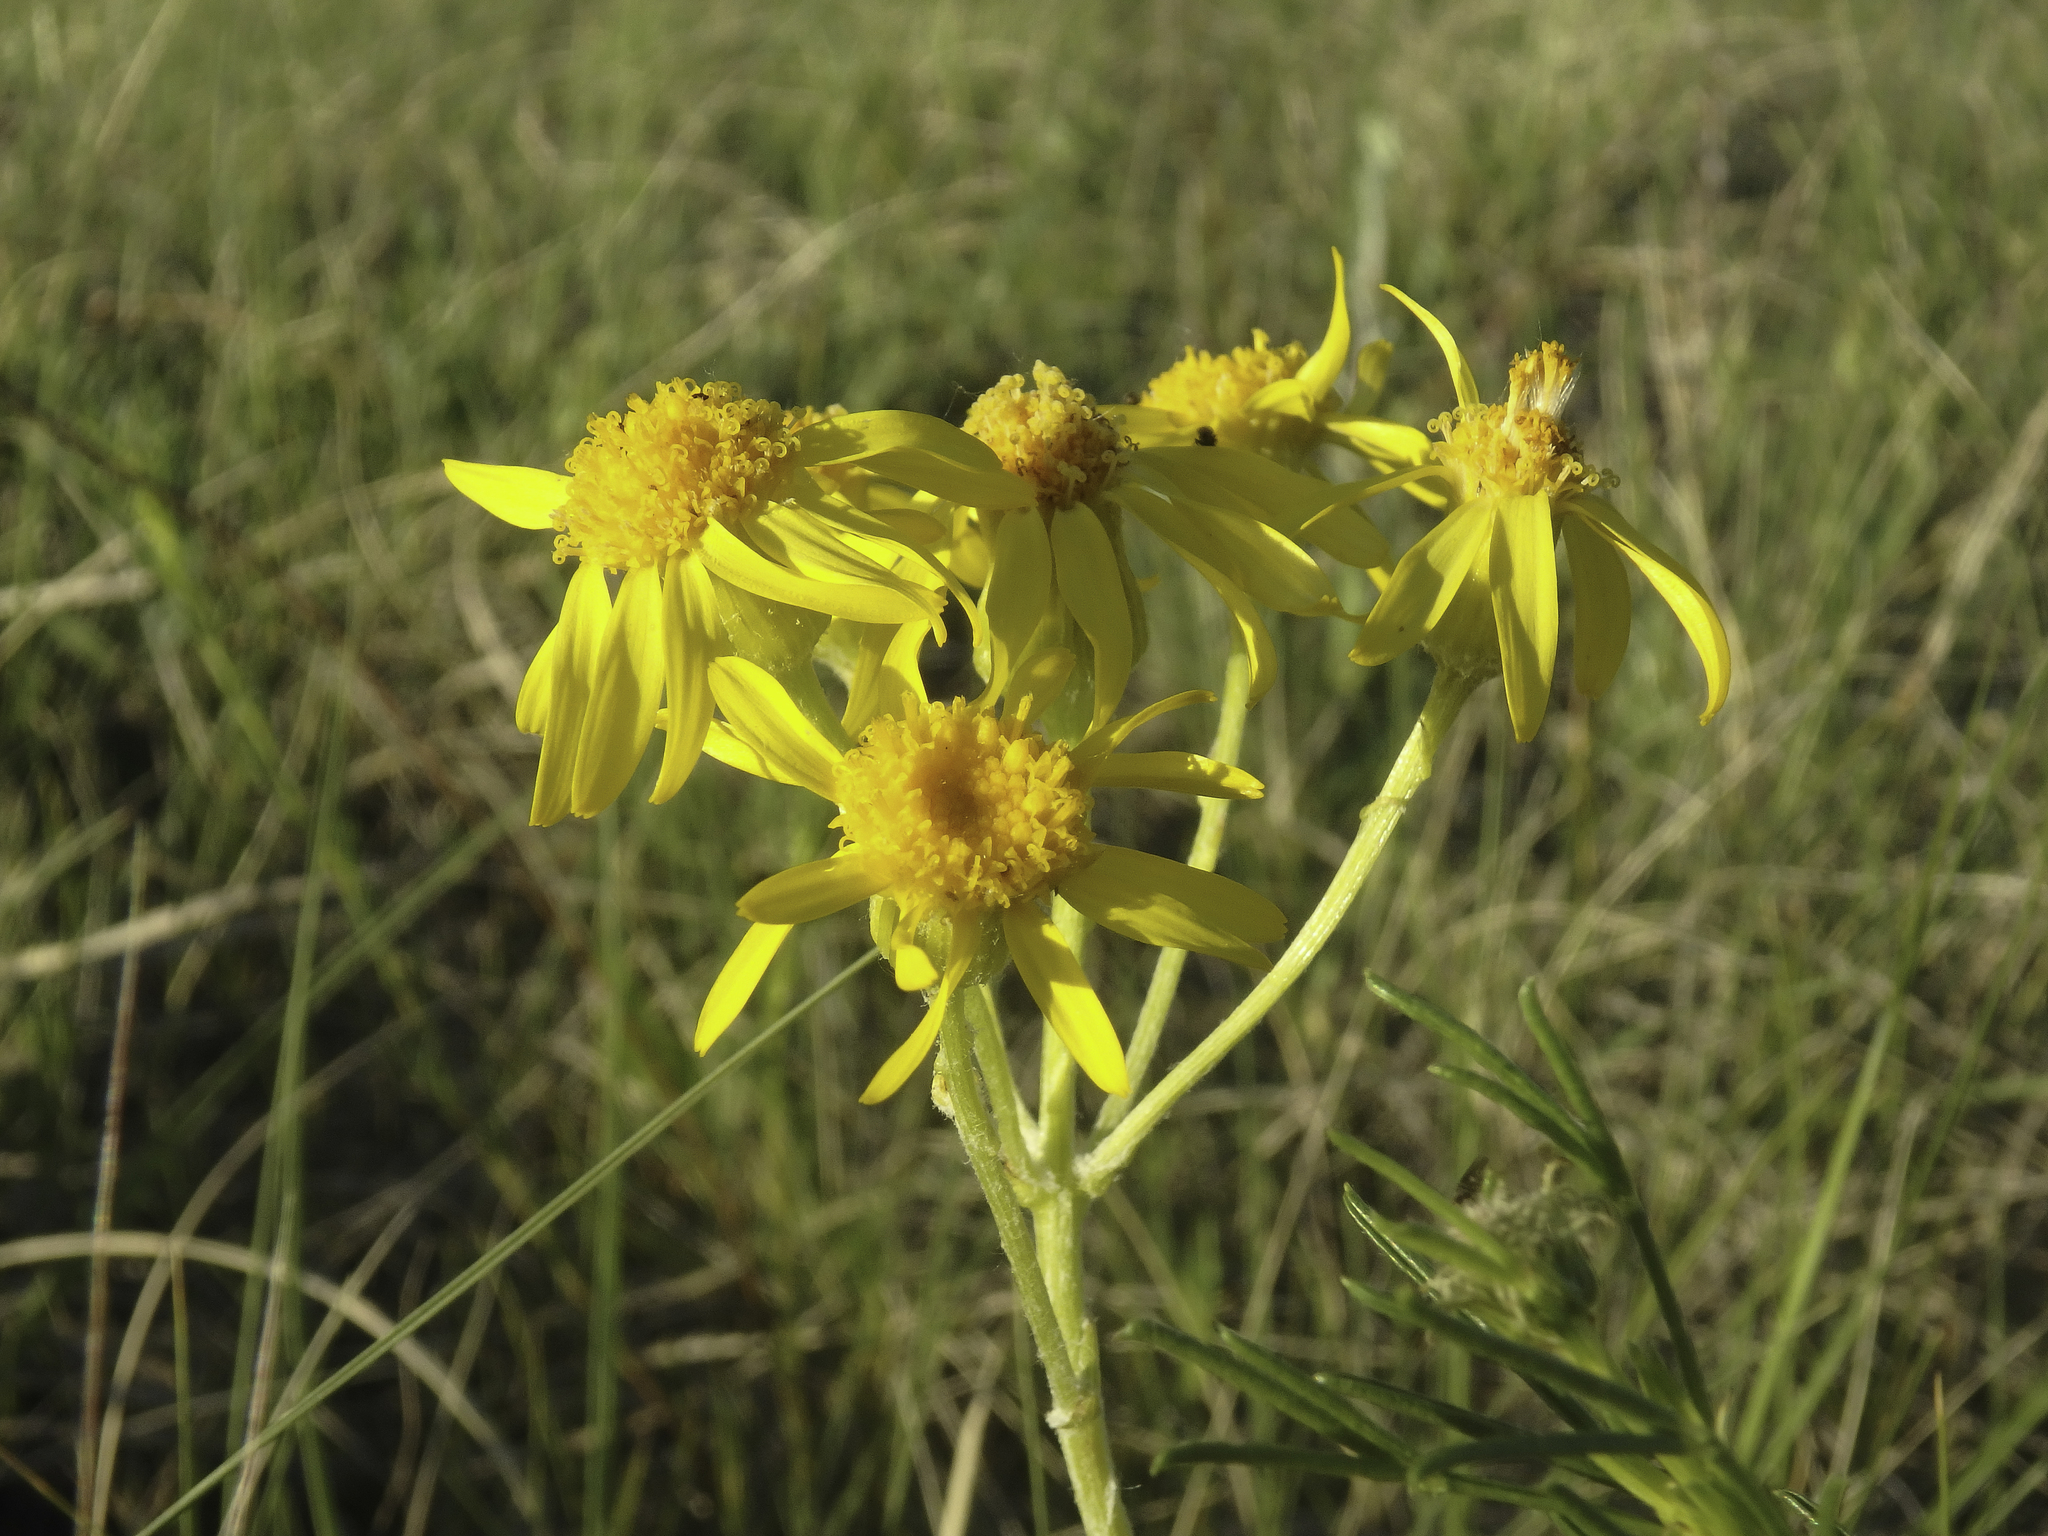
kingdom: Plantae
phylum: Tracheophyta
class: Magnoliopsida
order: Asterales
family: Asteraceae
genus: Packera
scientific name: Packera cana
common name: Woolly groundsel
